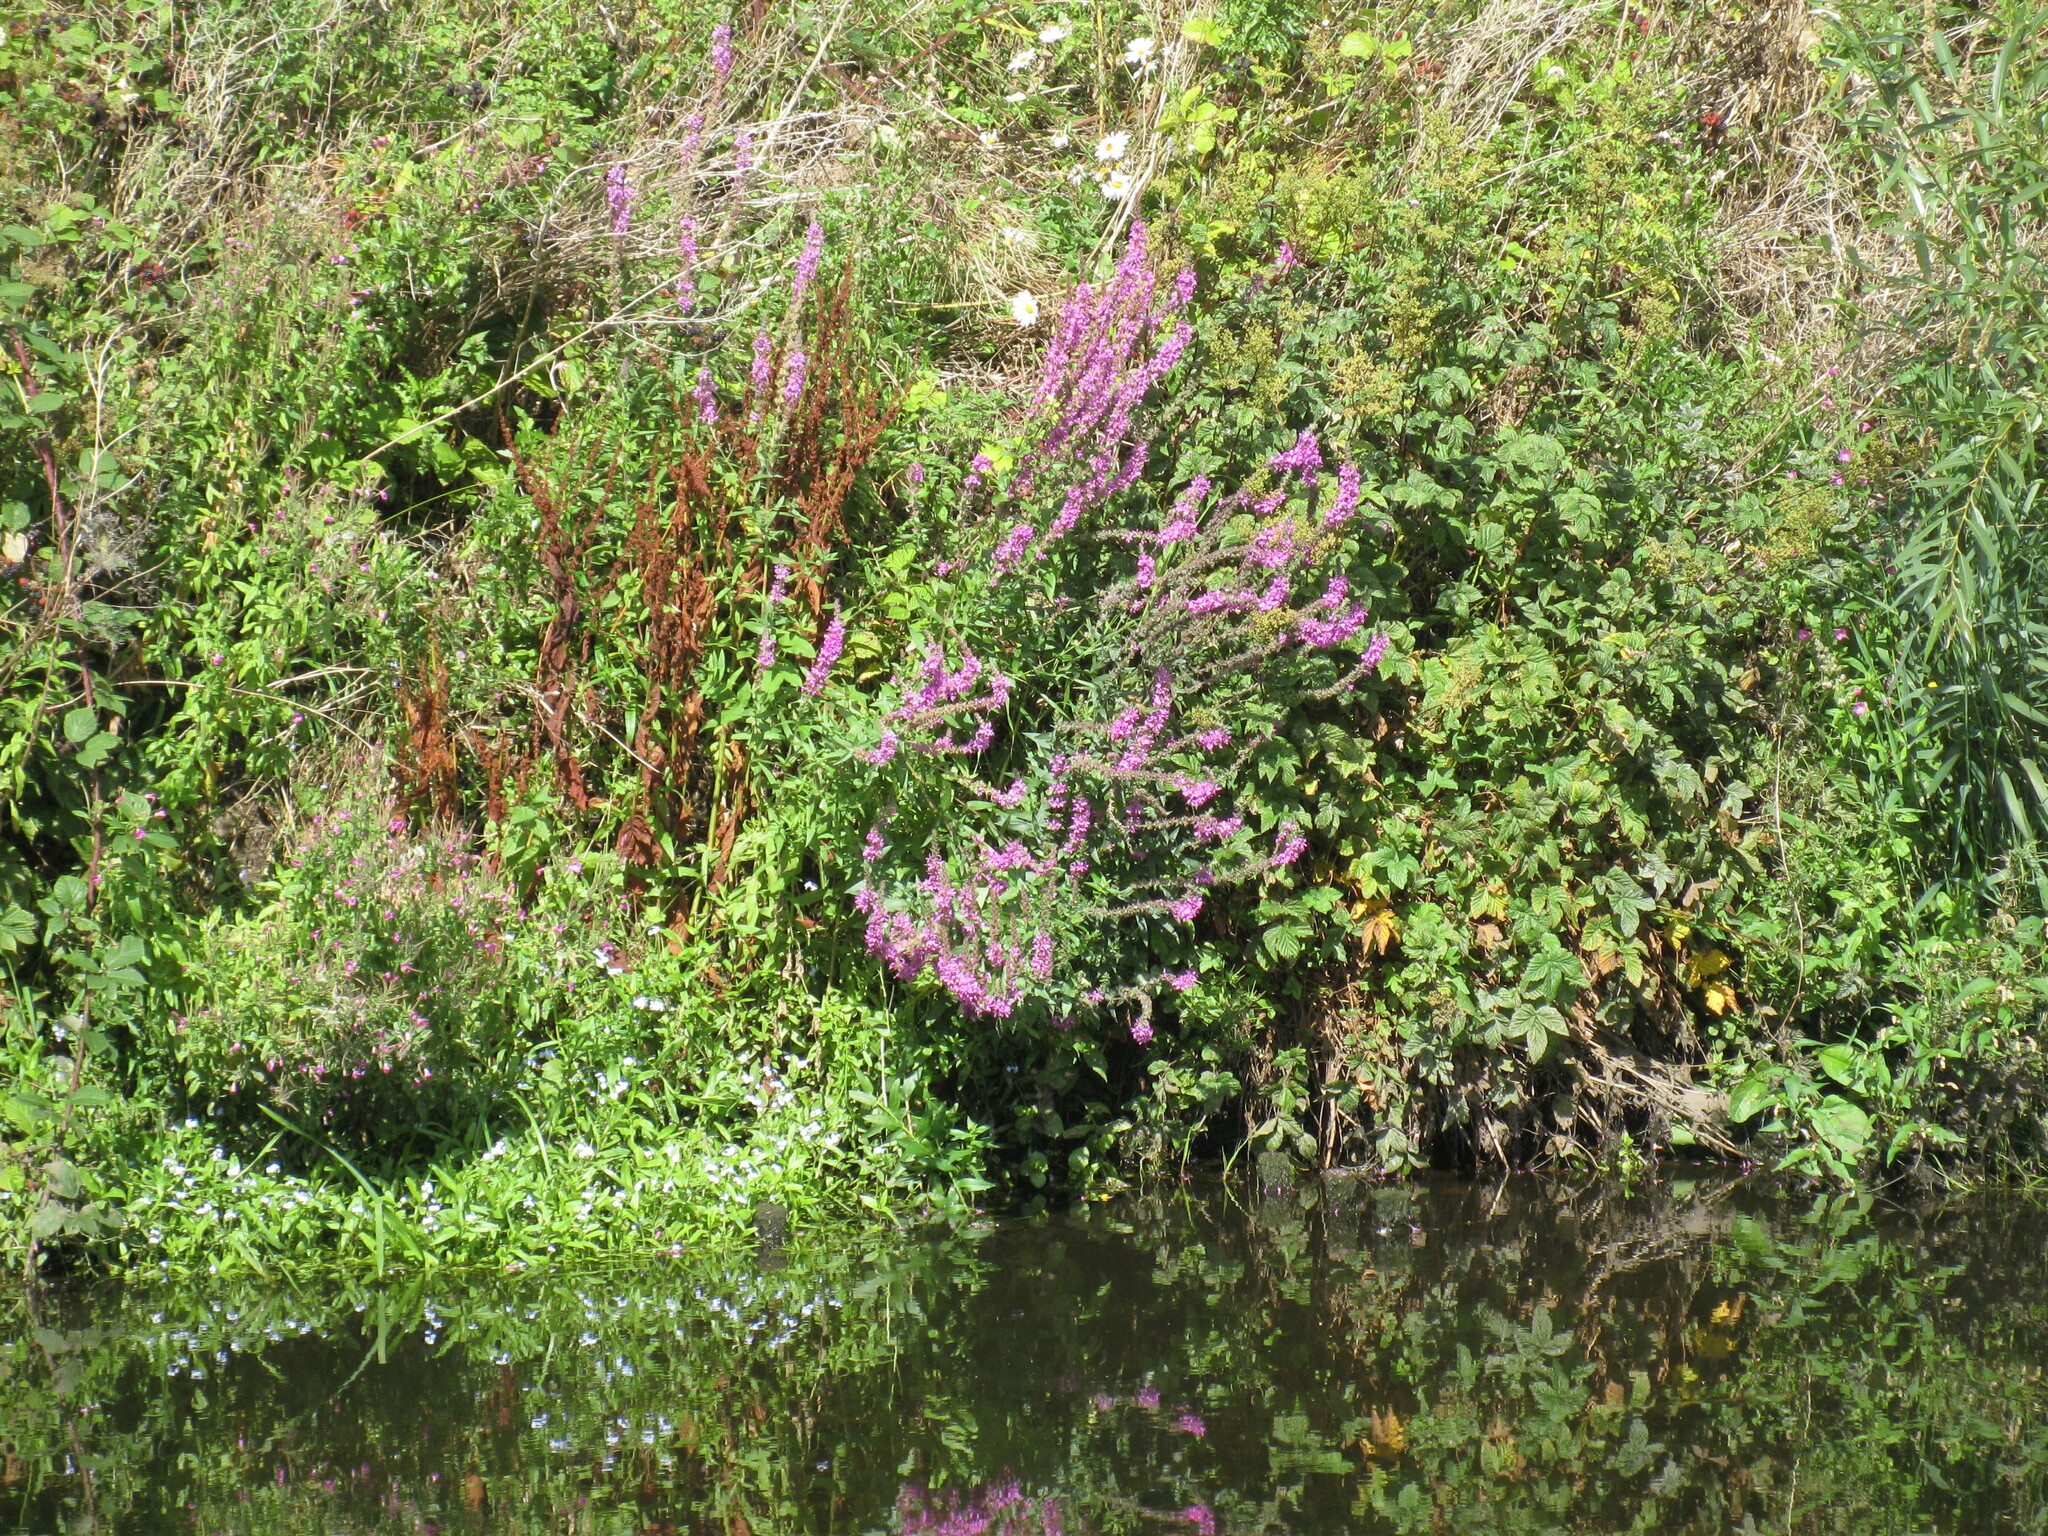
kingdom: Plantae
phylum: Tracheophyta
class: Magnoliopsida
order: Myrtales
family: Lythraceae
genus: Lythrum
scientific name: Lythrum salicaria
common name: Purple loosestrife
